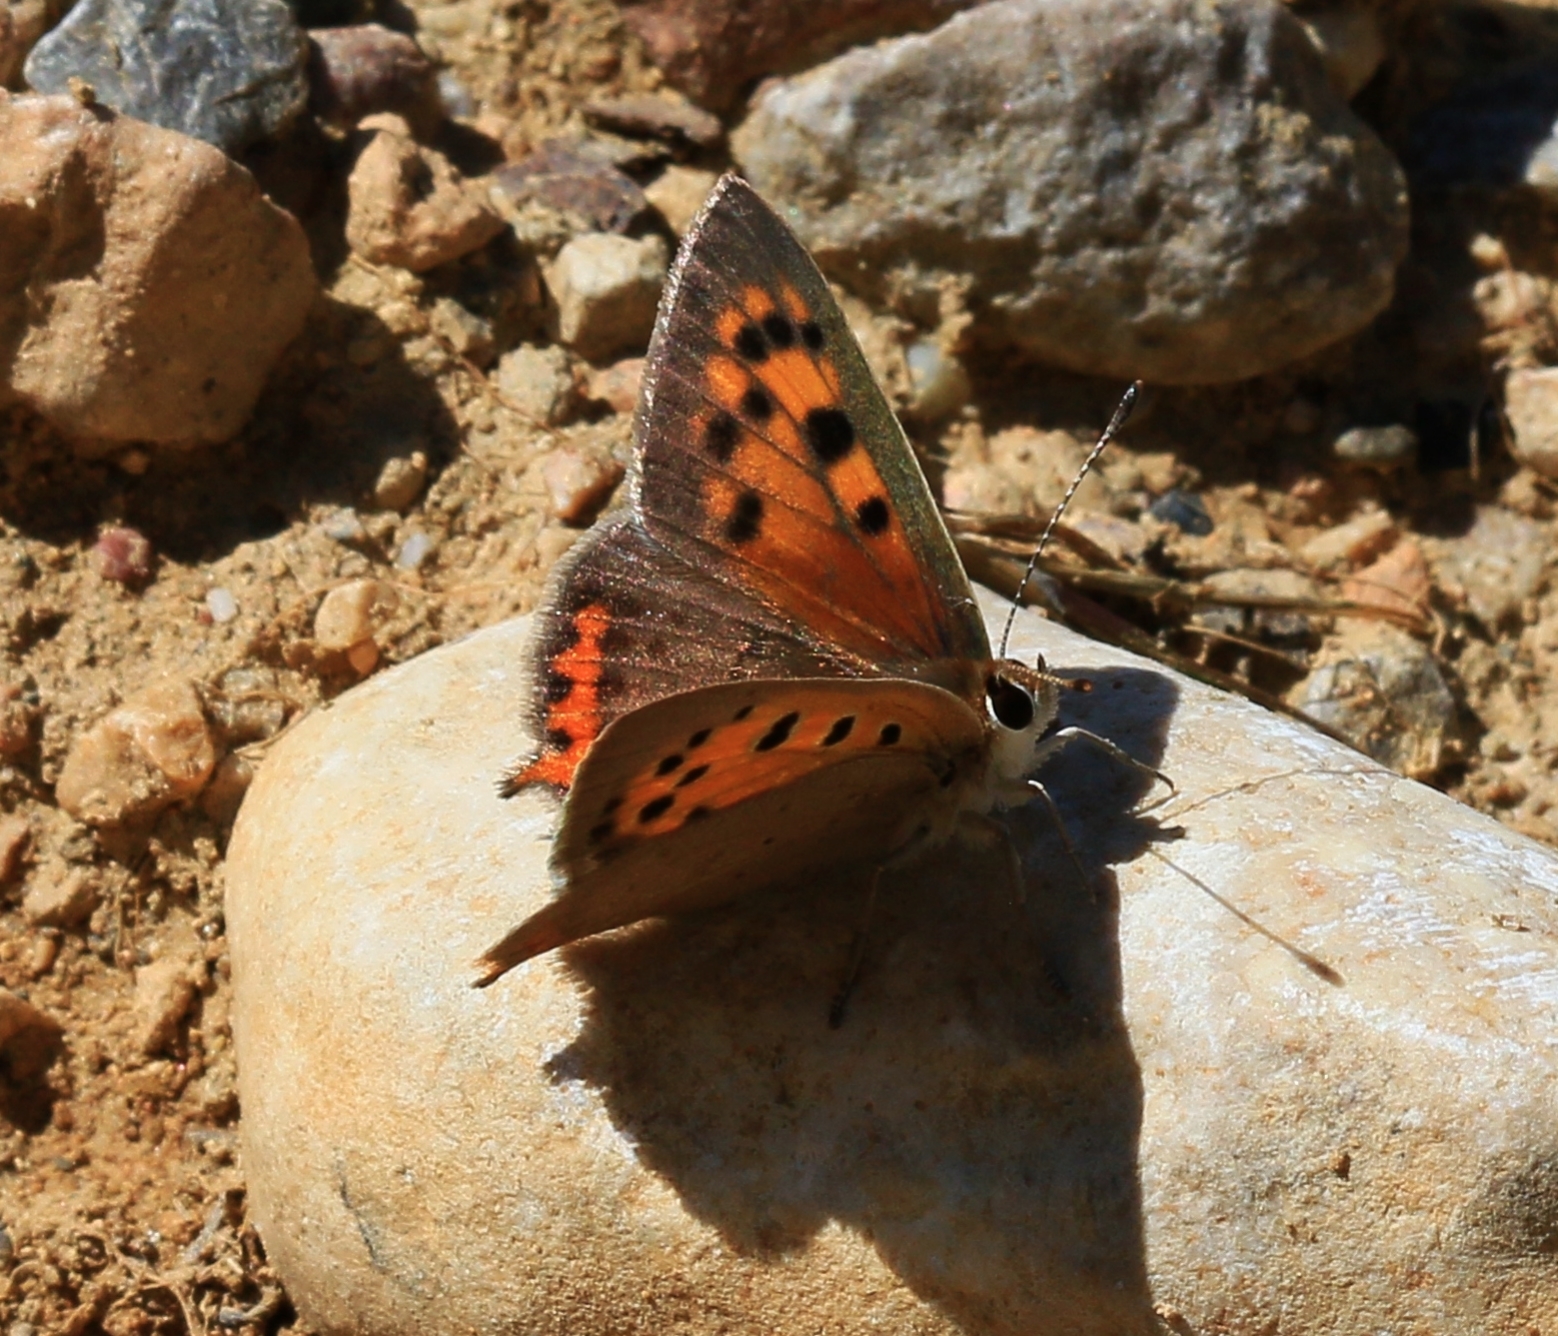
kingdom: Animalia
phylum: Arthropoda
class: Insecta
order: Lepidoptera
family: Lycaenidae
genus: Lycaena
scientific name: Lycaena phlaeas
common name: Small copper
